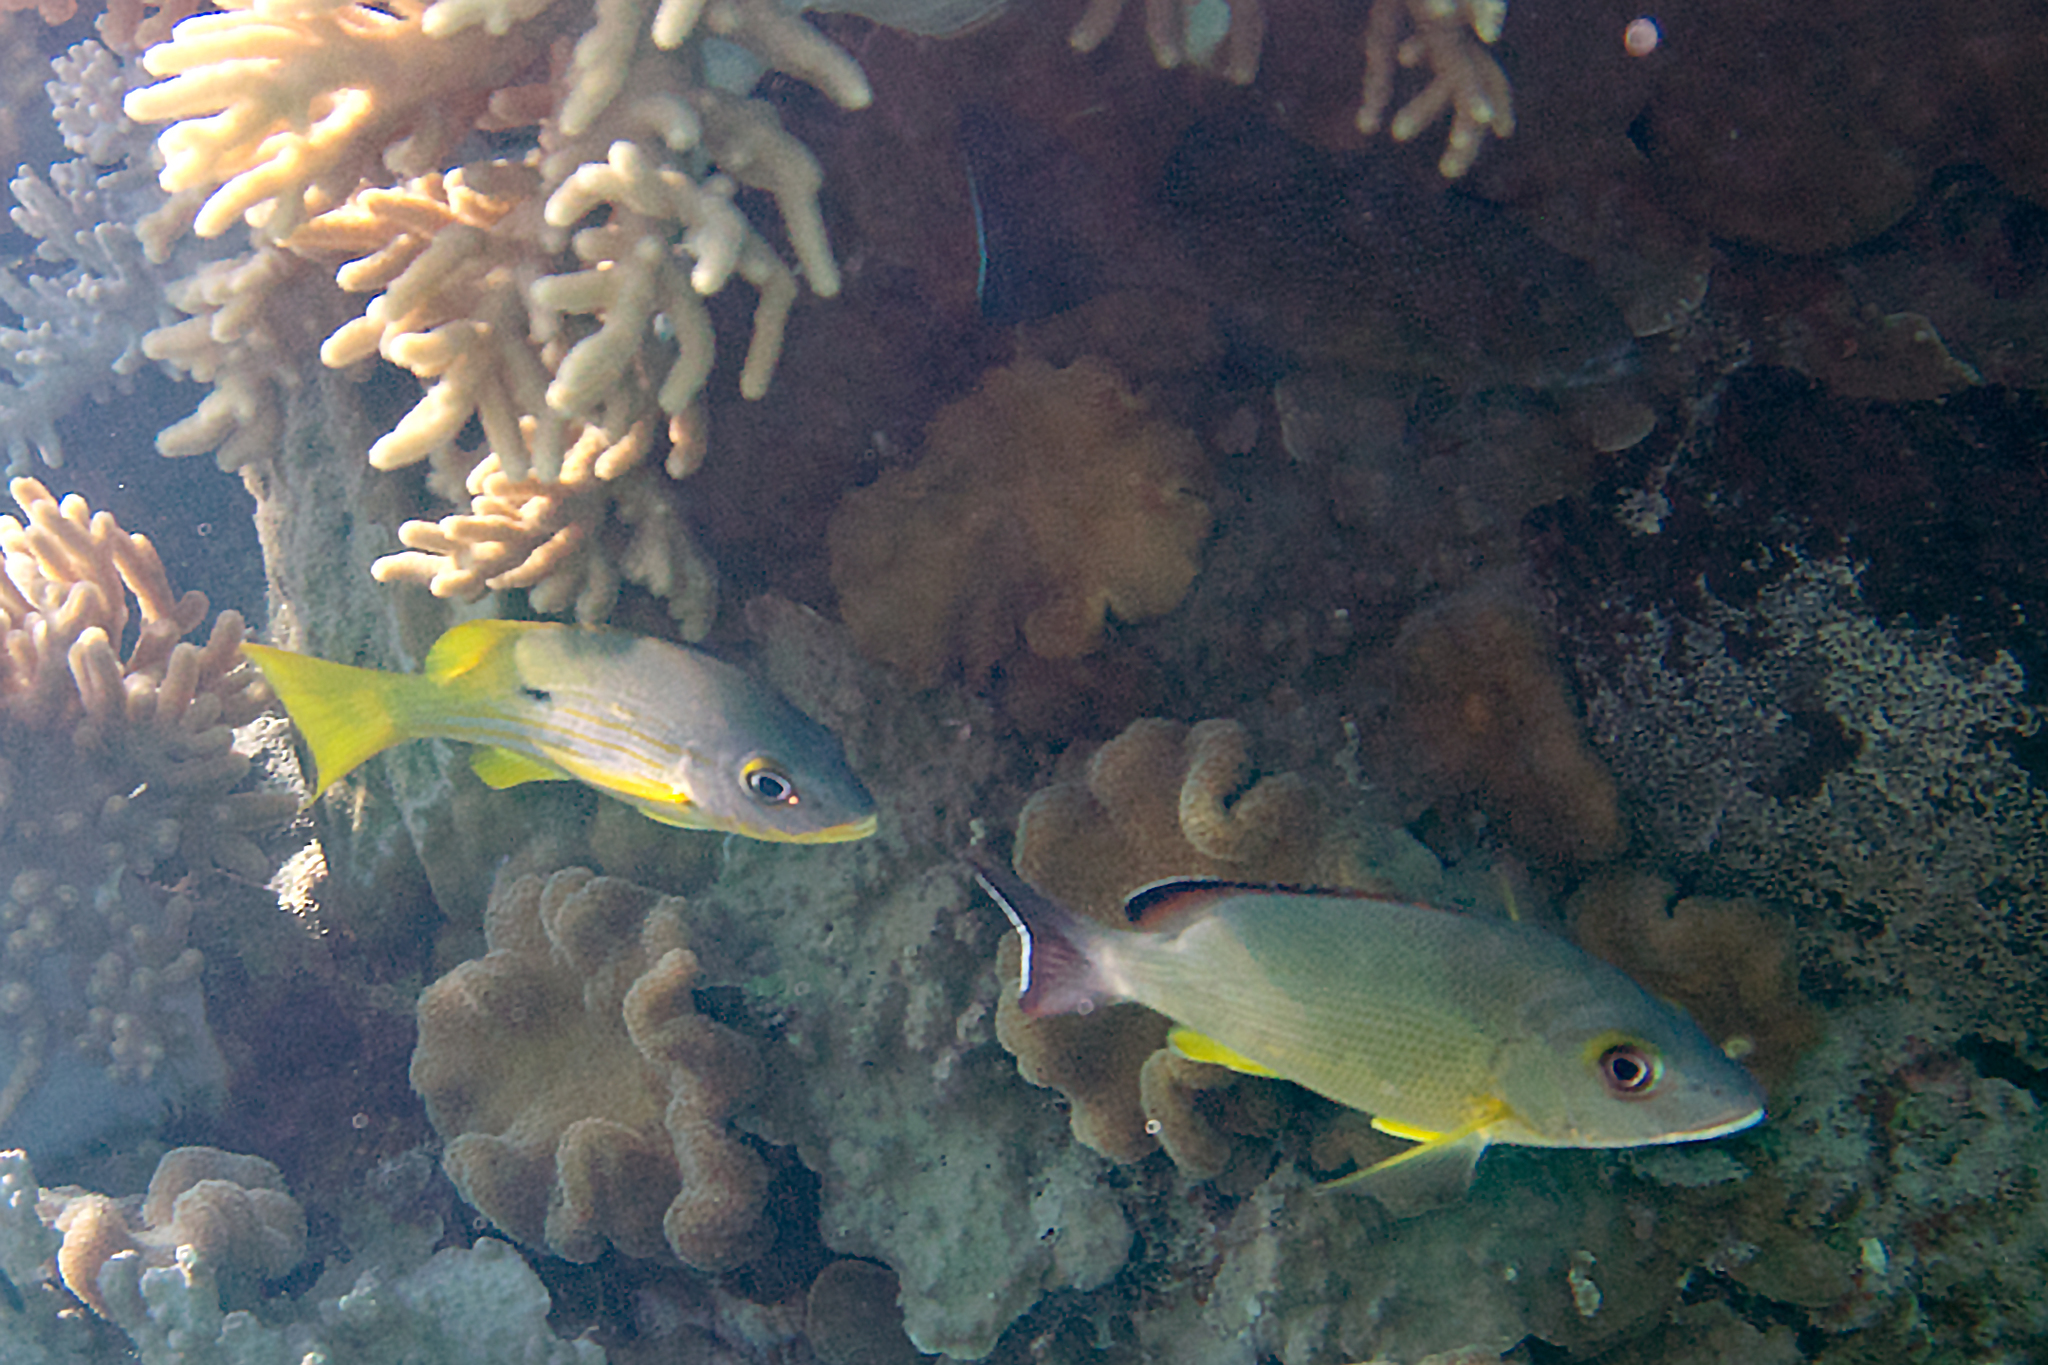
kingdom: Animalia
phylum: Chordata
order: Perciformes
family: Lutjanidae
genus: Lutjanus
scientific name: Lutjanus fulvus
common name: Blacktail snapper
